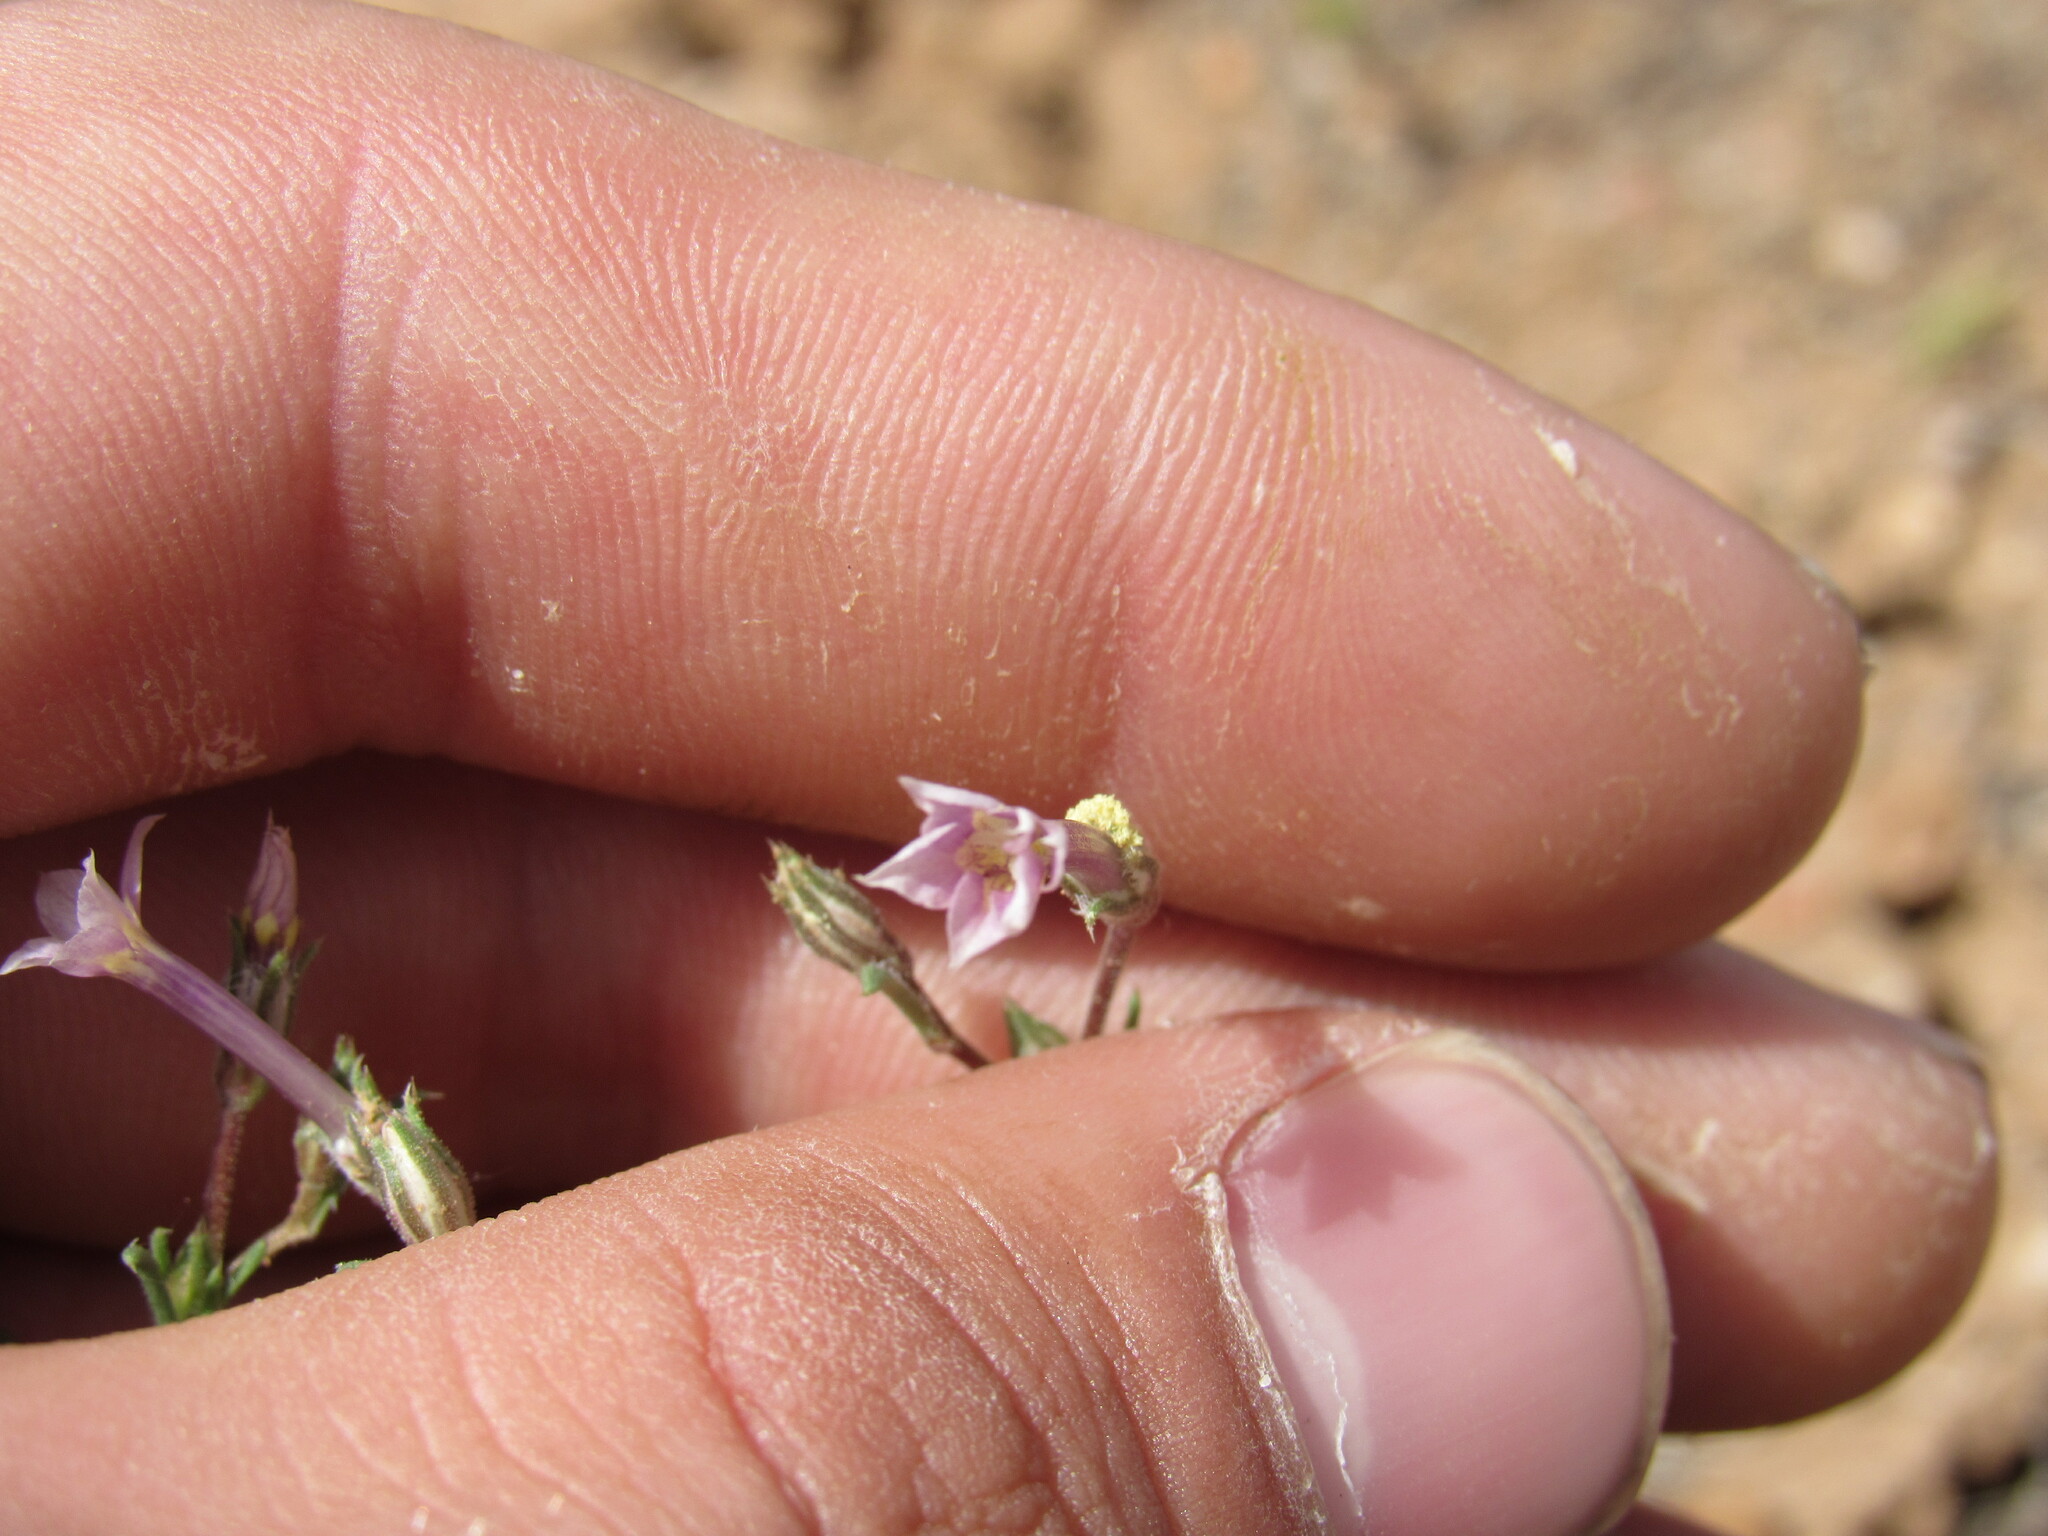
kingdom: Plantae
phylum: Tracheophyta
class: Magnoliopsida
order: Ericales
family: Polemoniaceae
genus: Ipomopsis
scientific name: Ipomopsis laxiflora
